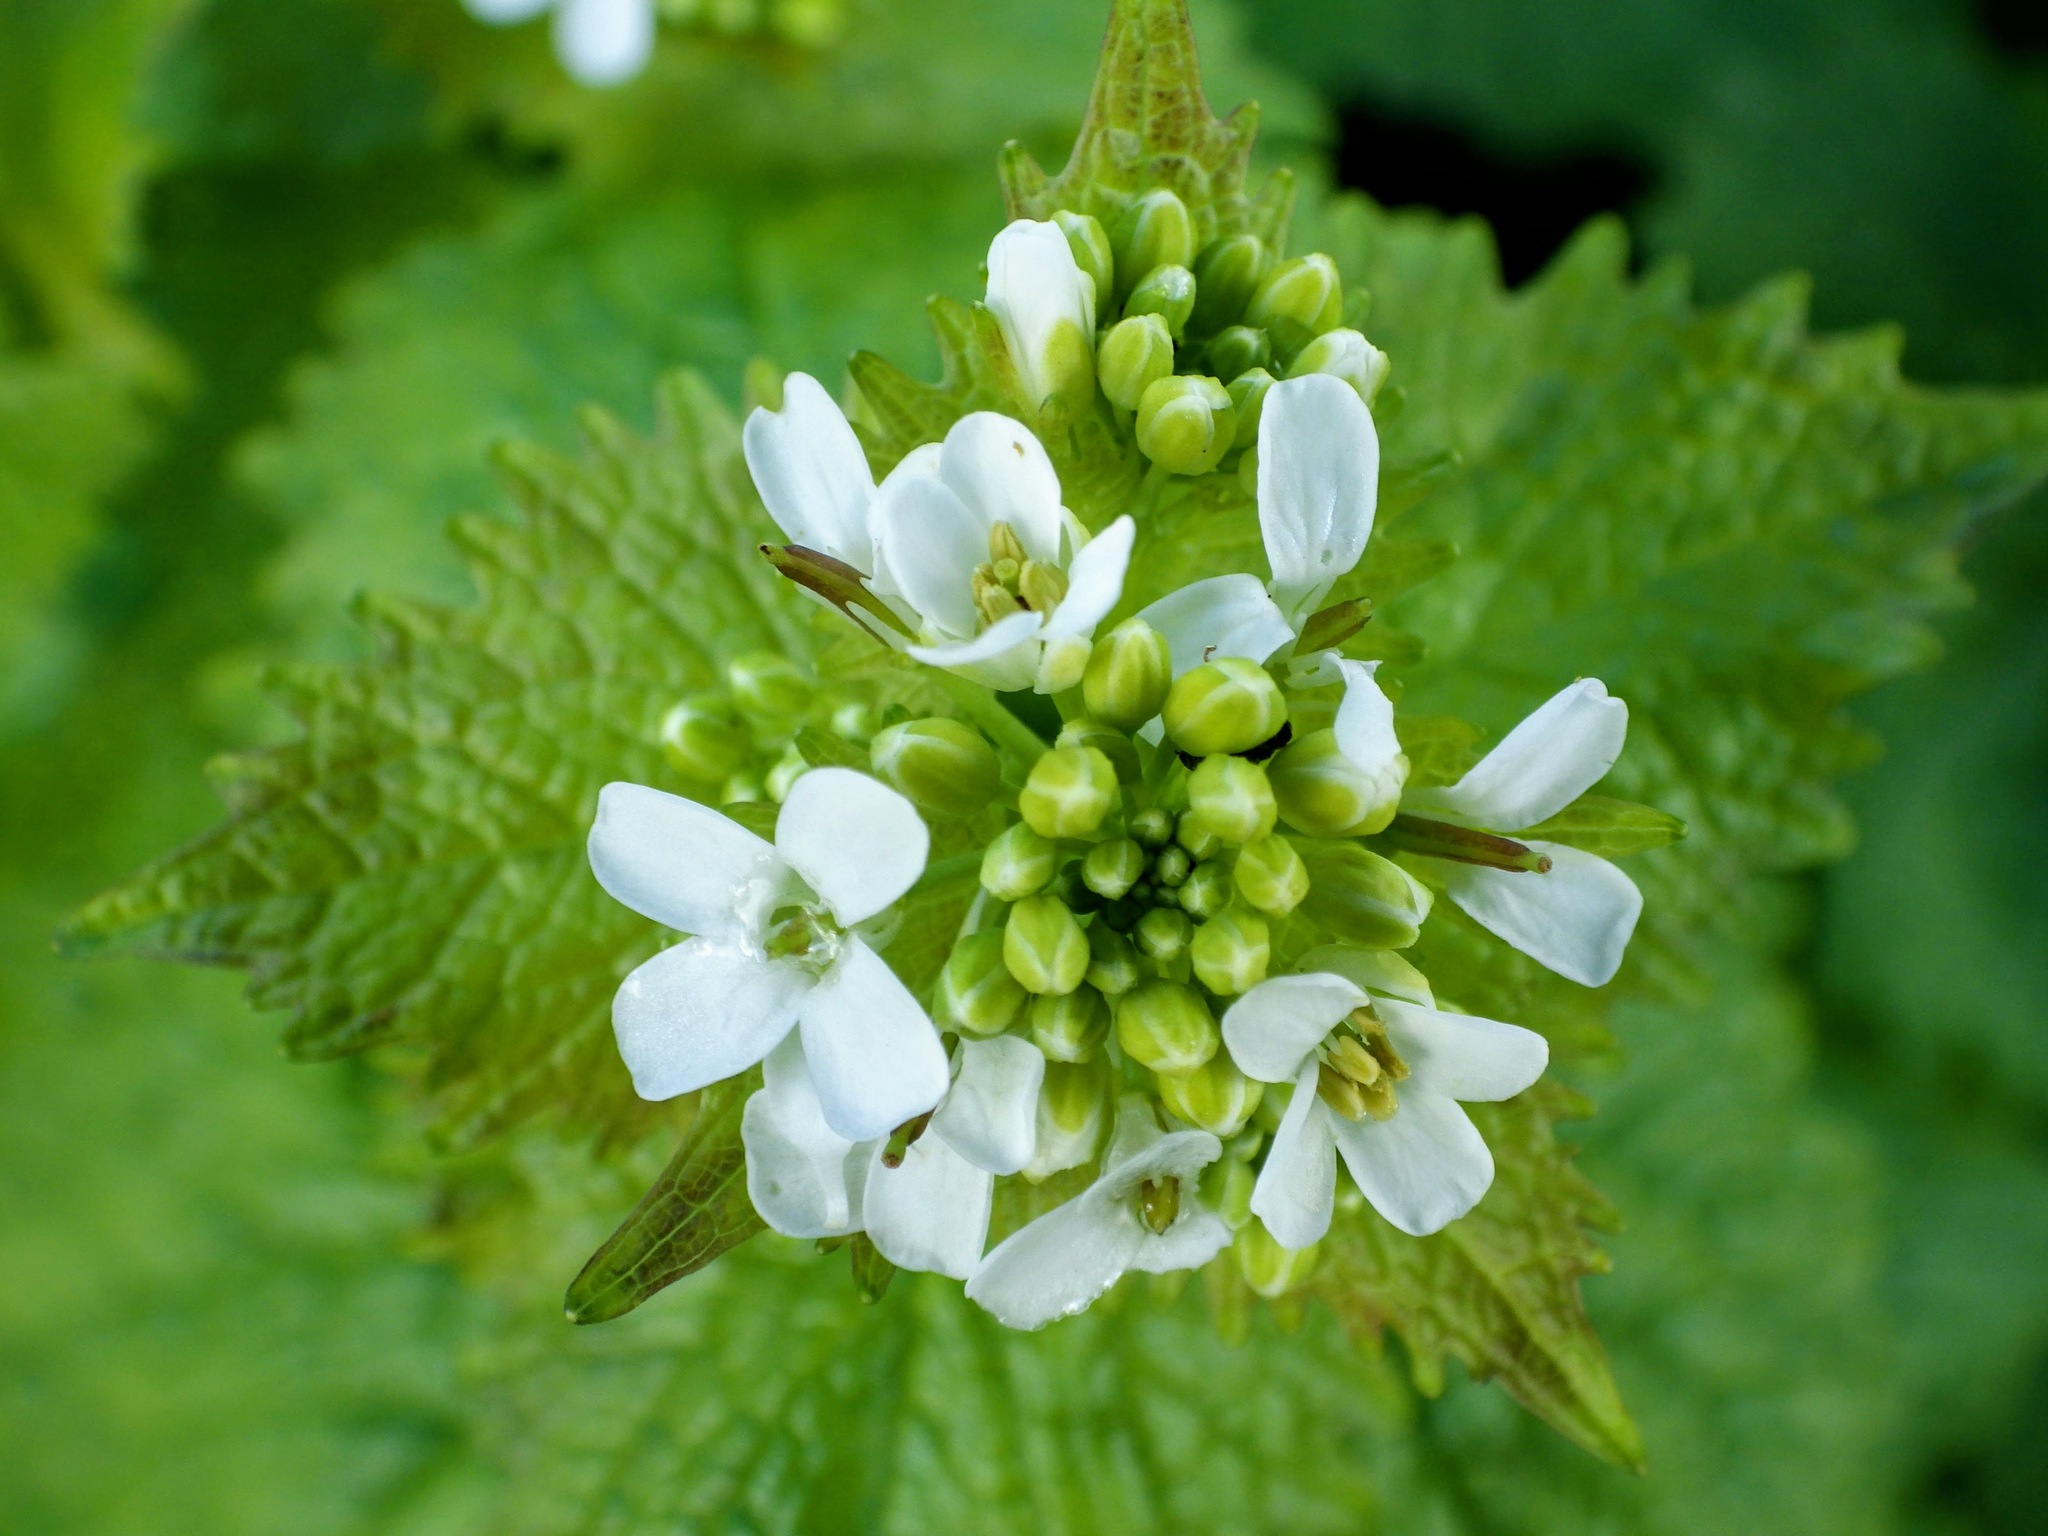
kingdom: Plantae
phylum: Tracheophyta
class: Magnoliopsida
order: Brassicales
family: Brassicaceae
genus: Alliaria
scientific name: Alliaria petiolata
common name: Garlic mustard
